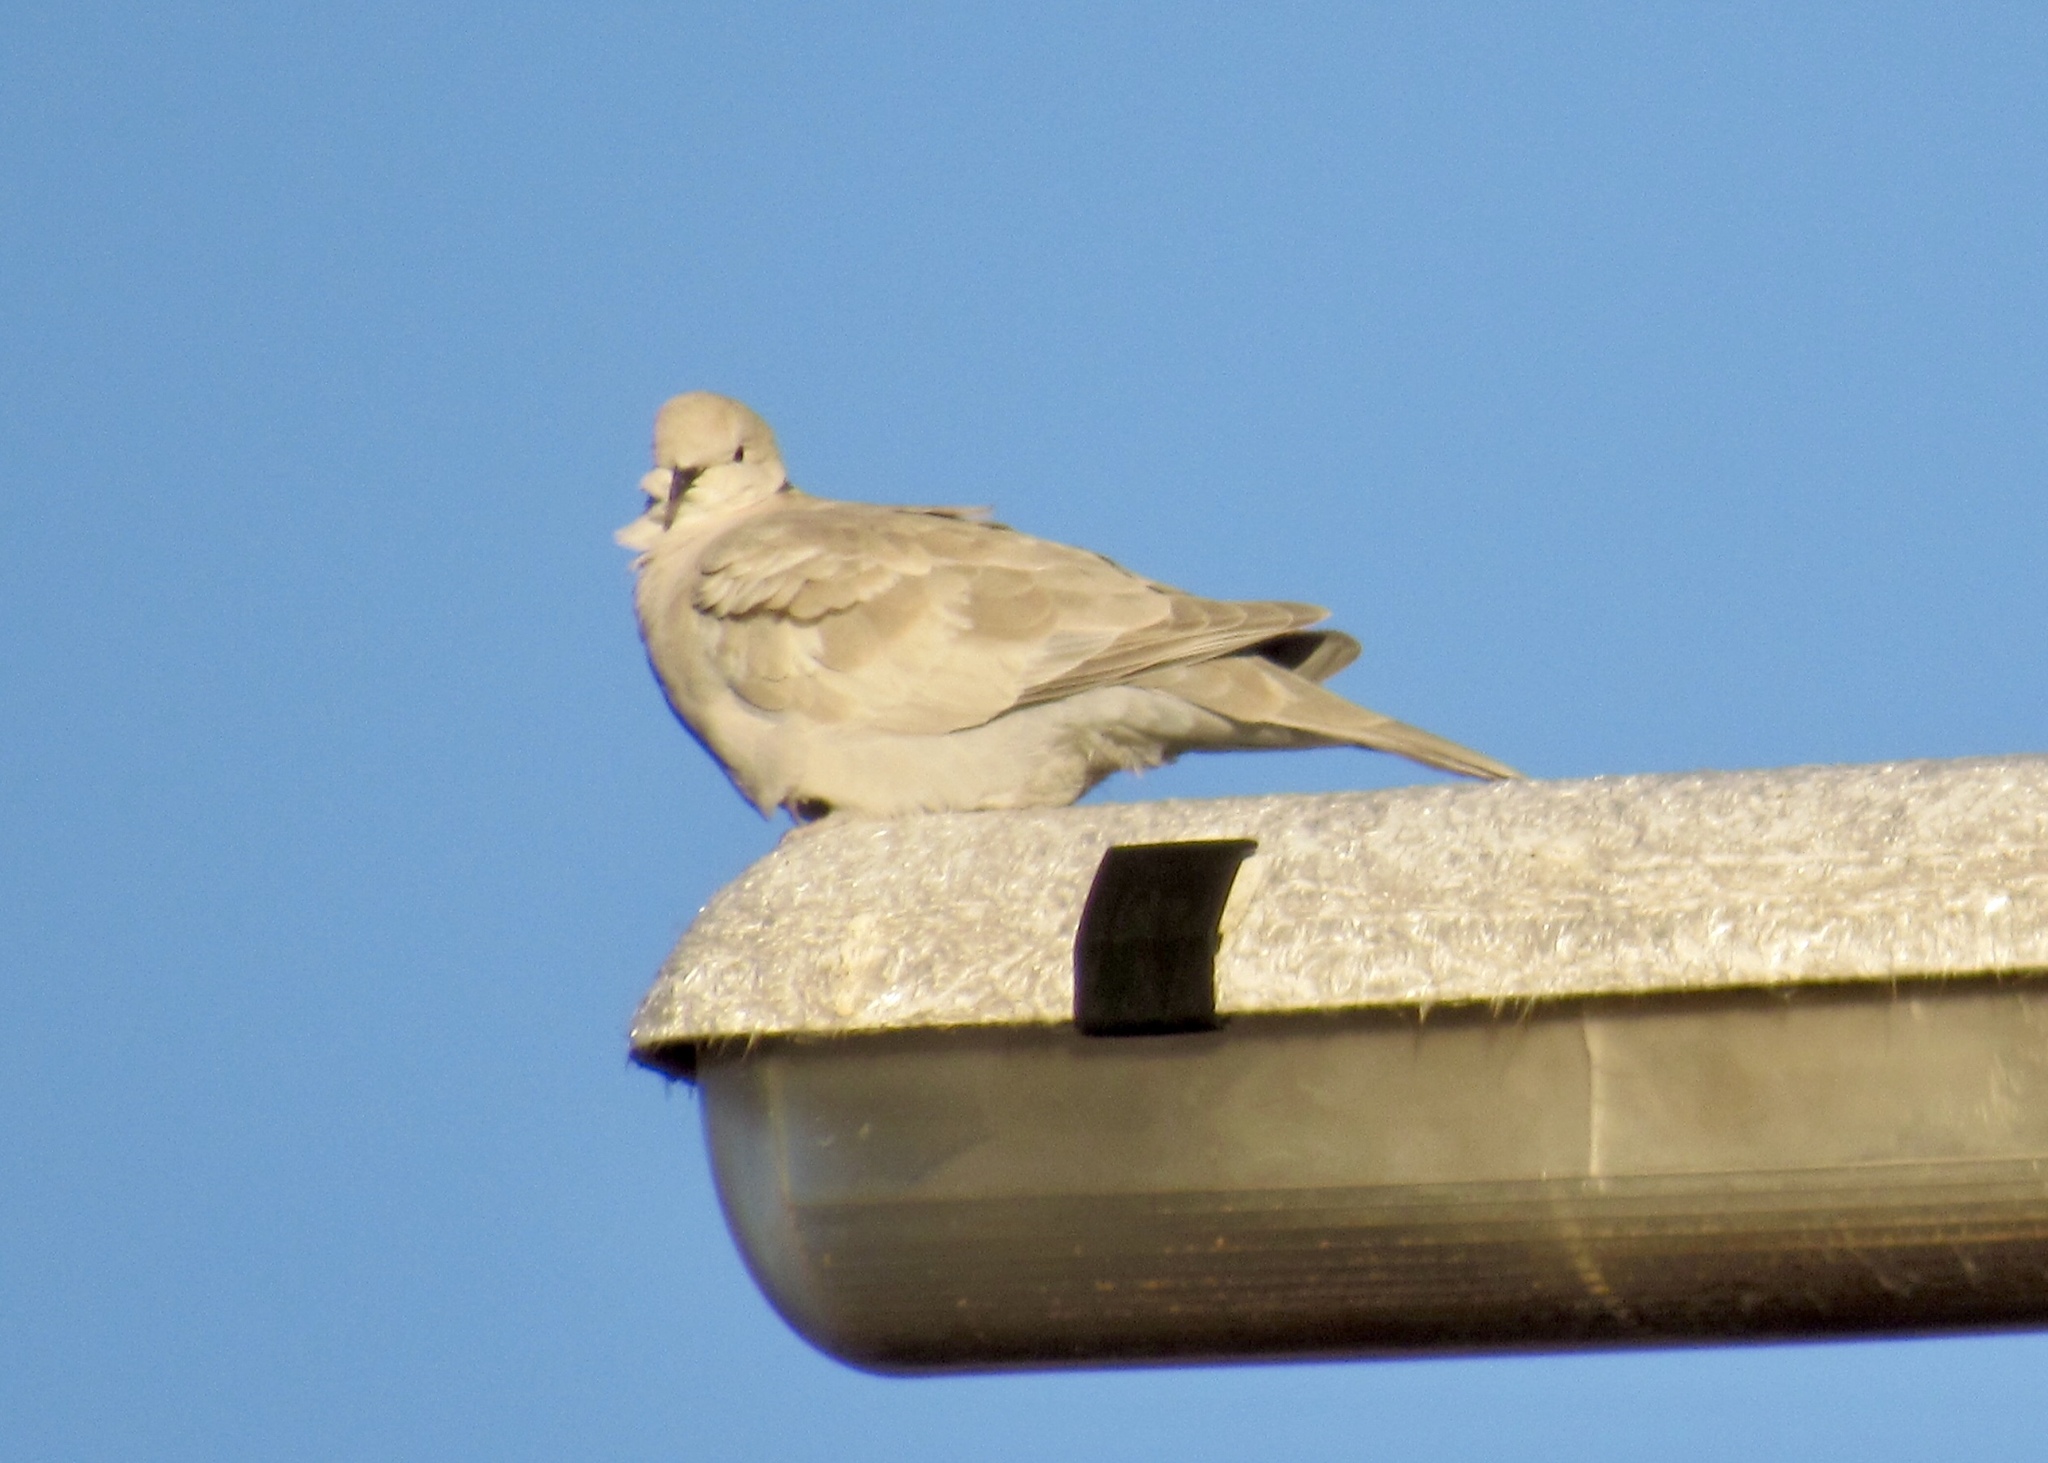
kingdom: Animalia
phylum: Chordata
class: Aves
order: Columbiformes
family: Columbidae
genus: Streptopelia
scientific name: Streptopelia decaocto
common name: Eurasian collared dove
